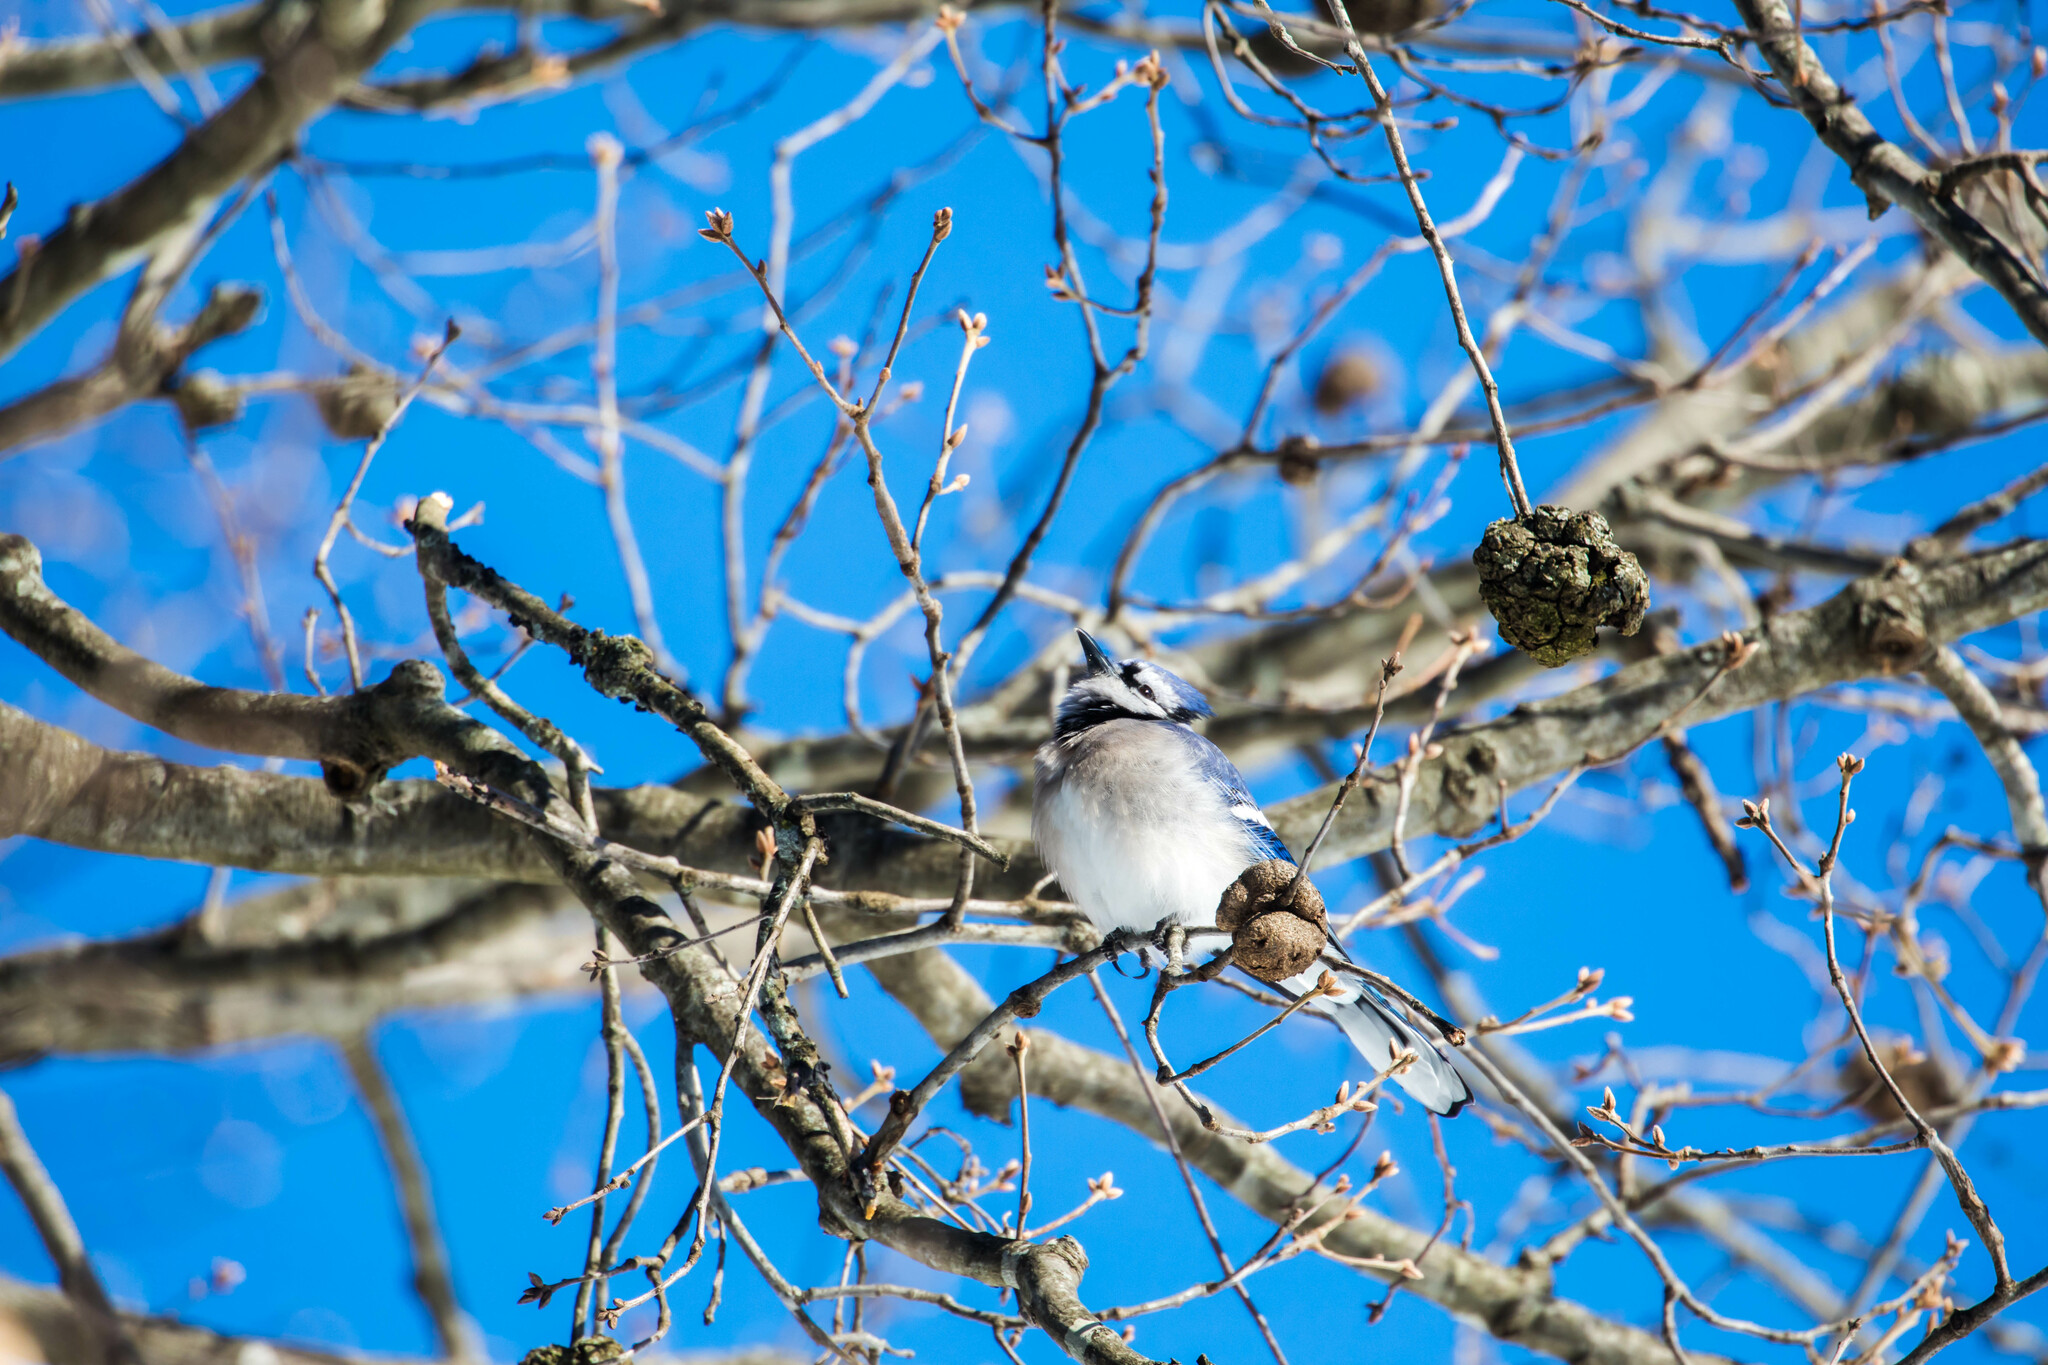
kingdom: Animalia
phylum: Chordata
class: Aves
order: Passeriformes
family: Corvidae
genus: Cyanocitta
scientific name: Cyanocitta cristata
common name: Blue jay
